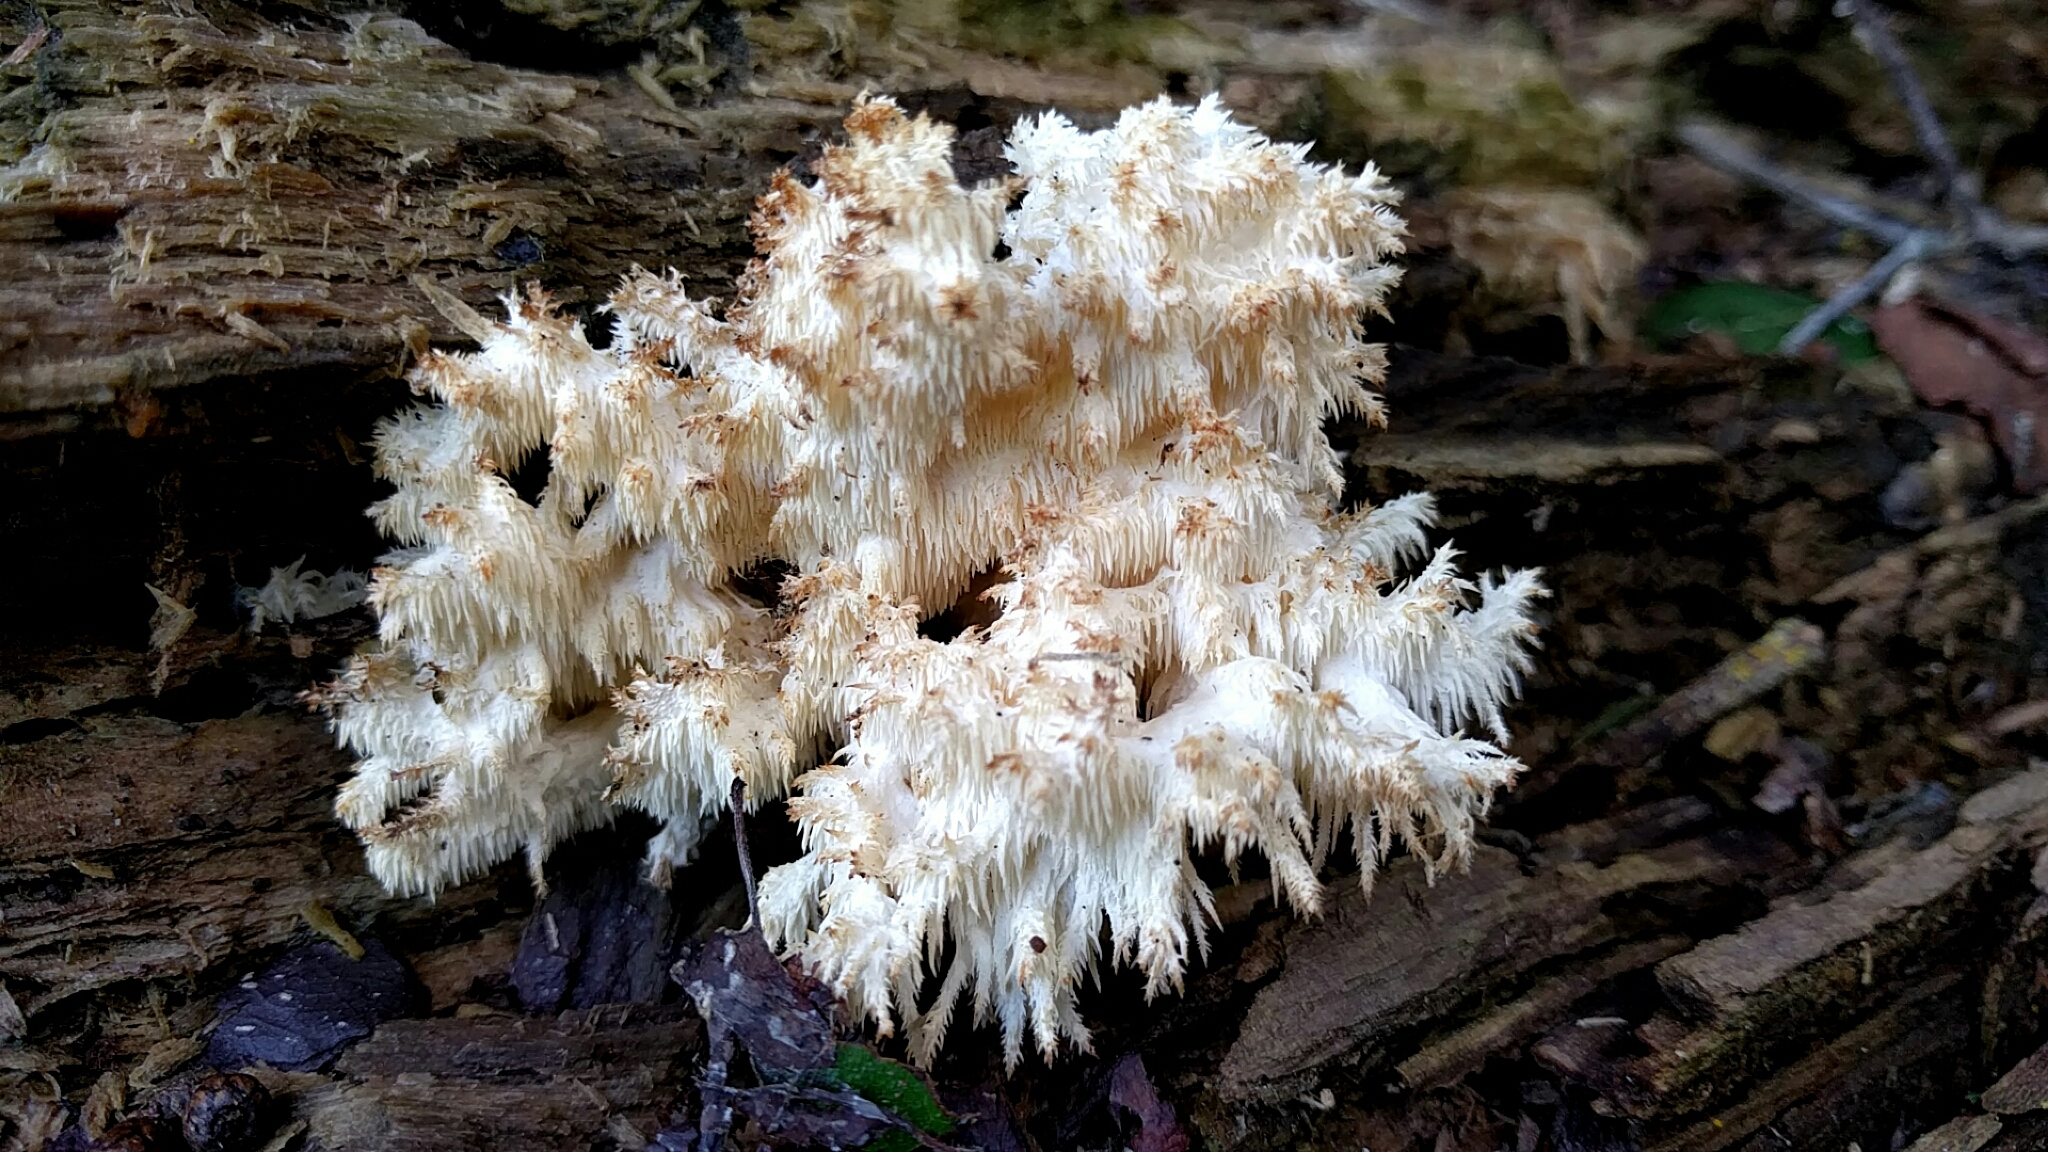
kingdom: Fungi
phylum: Basidiomycota
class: Agaricomycetes
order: Russulales
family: Hericiaceae
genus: Hericium
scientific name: Hericium coralloides
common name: Coral tooth
